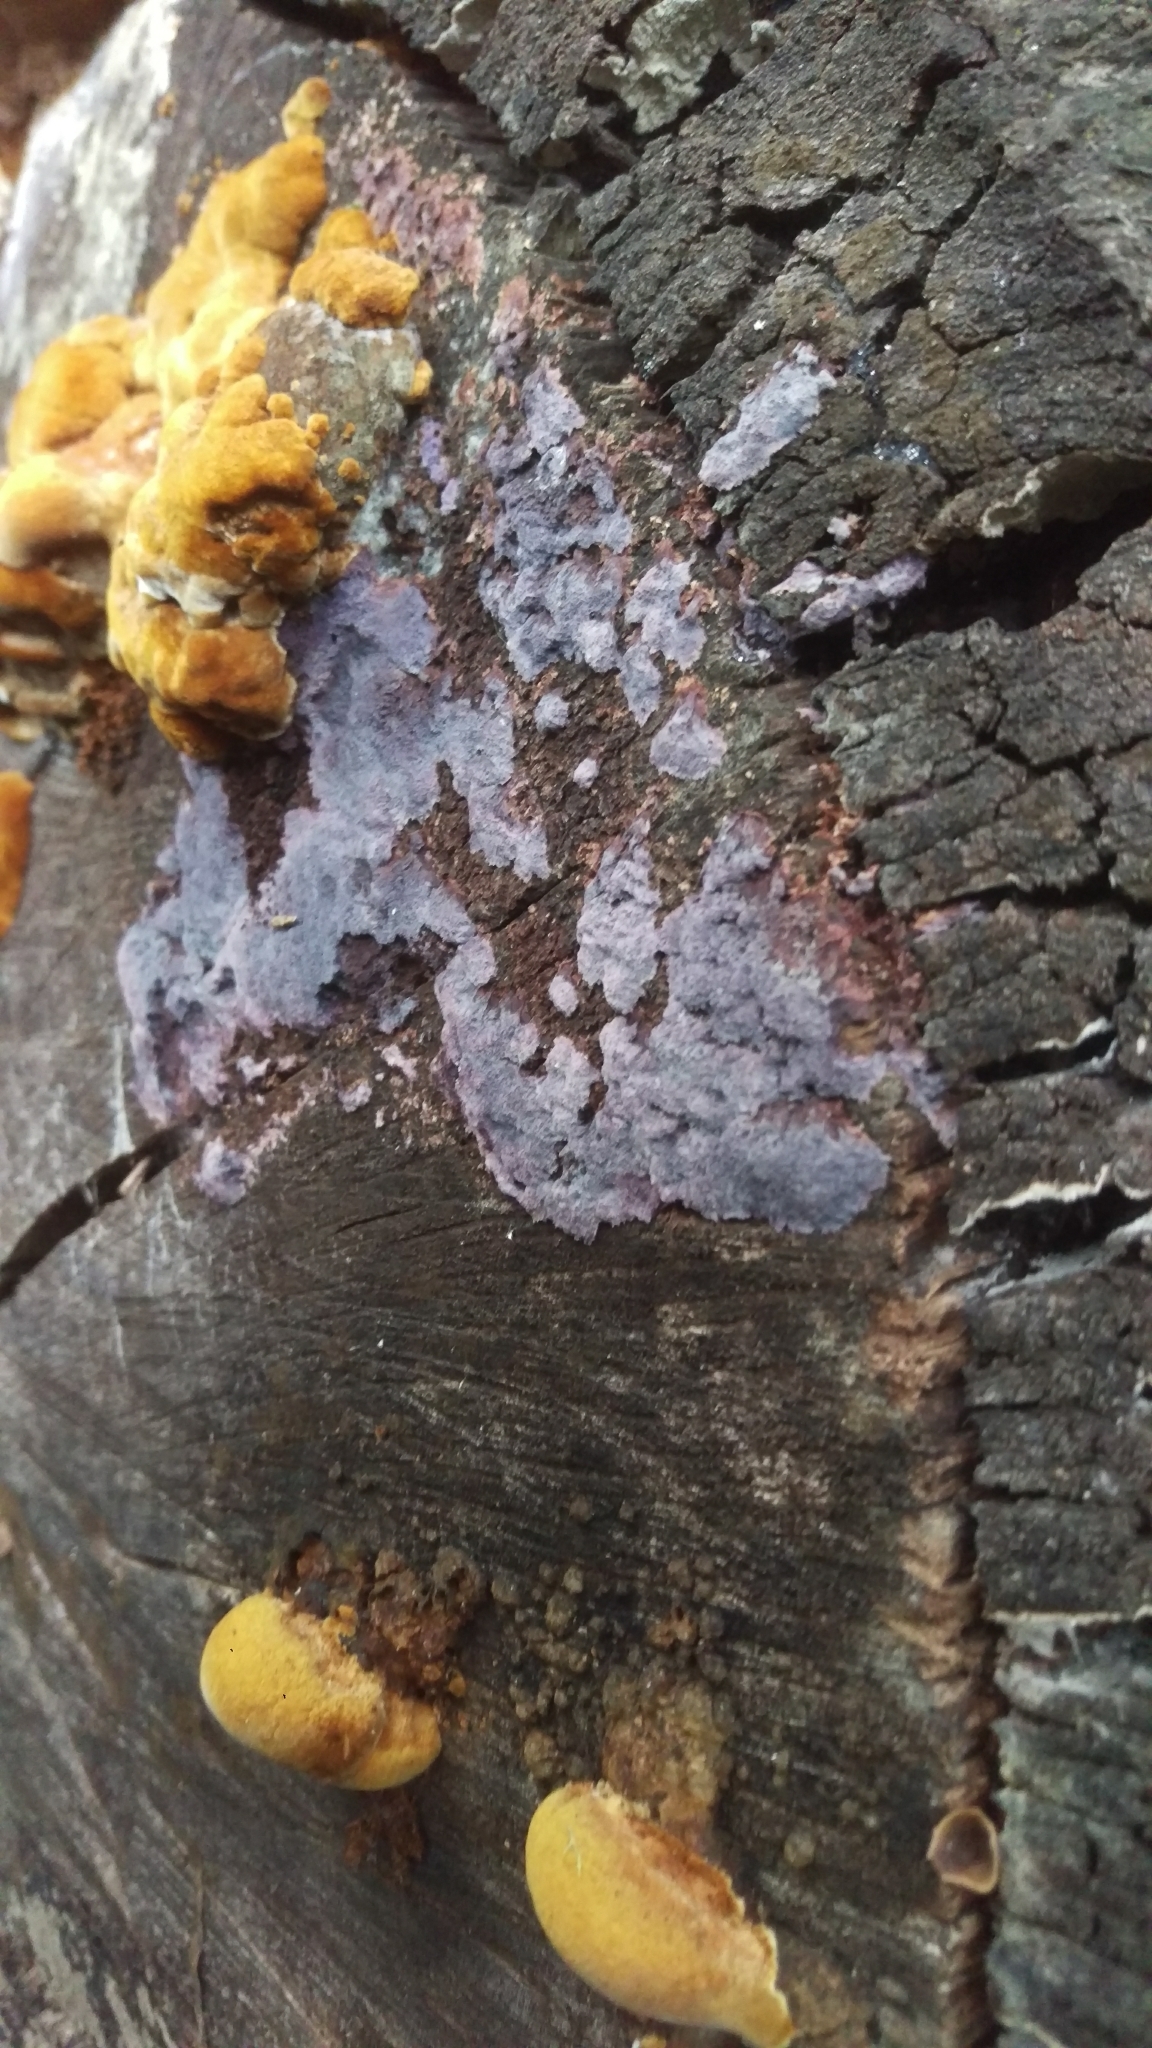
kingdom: Fungi
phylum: Basidiomycota
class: Agaricomycetes
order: Corticiales
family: Punctulariaceae
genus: Punctularia
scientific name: Punctularia atropurpurascens
